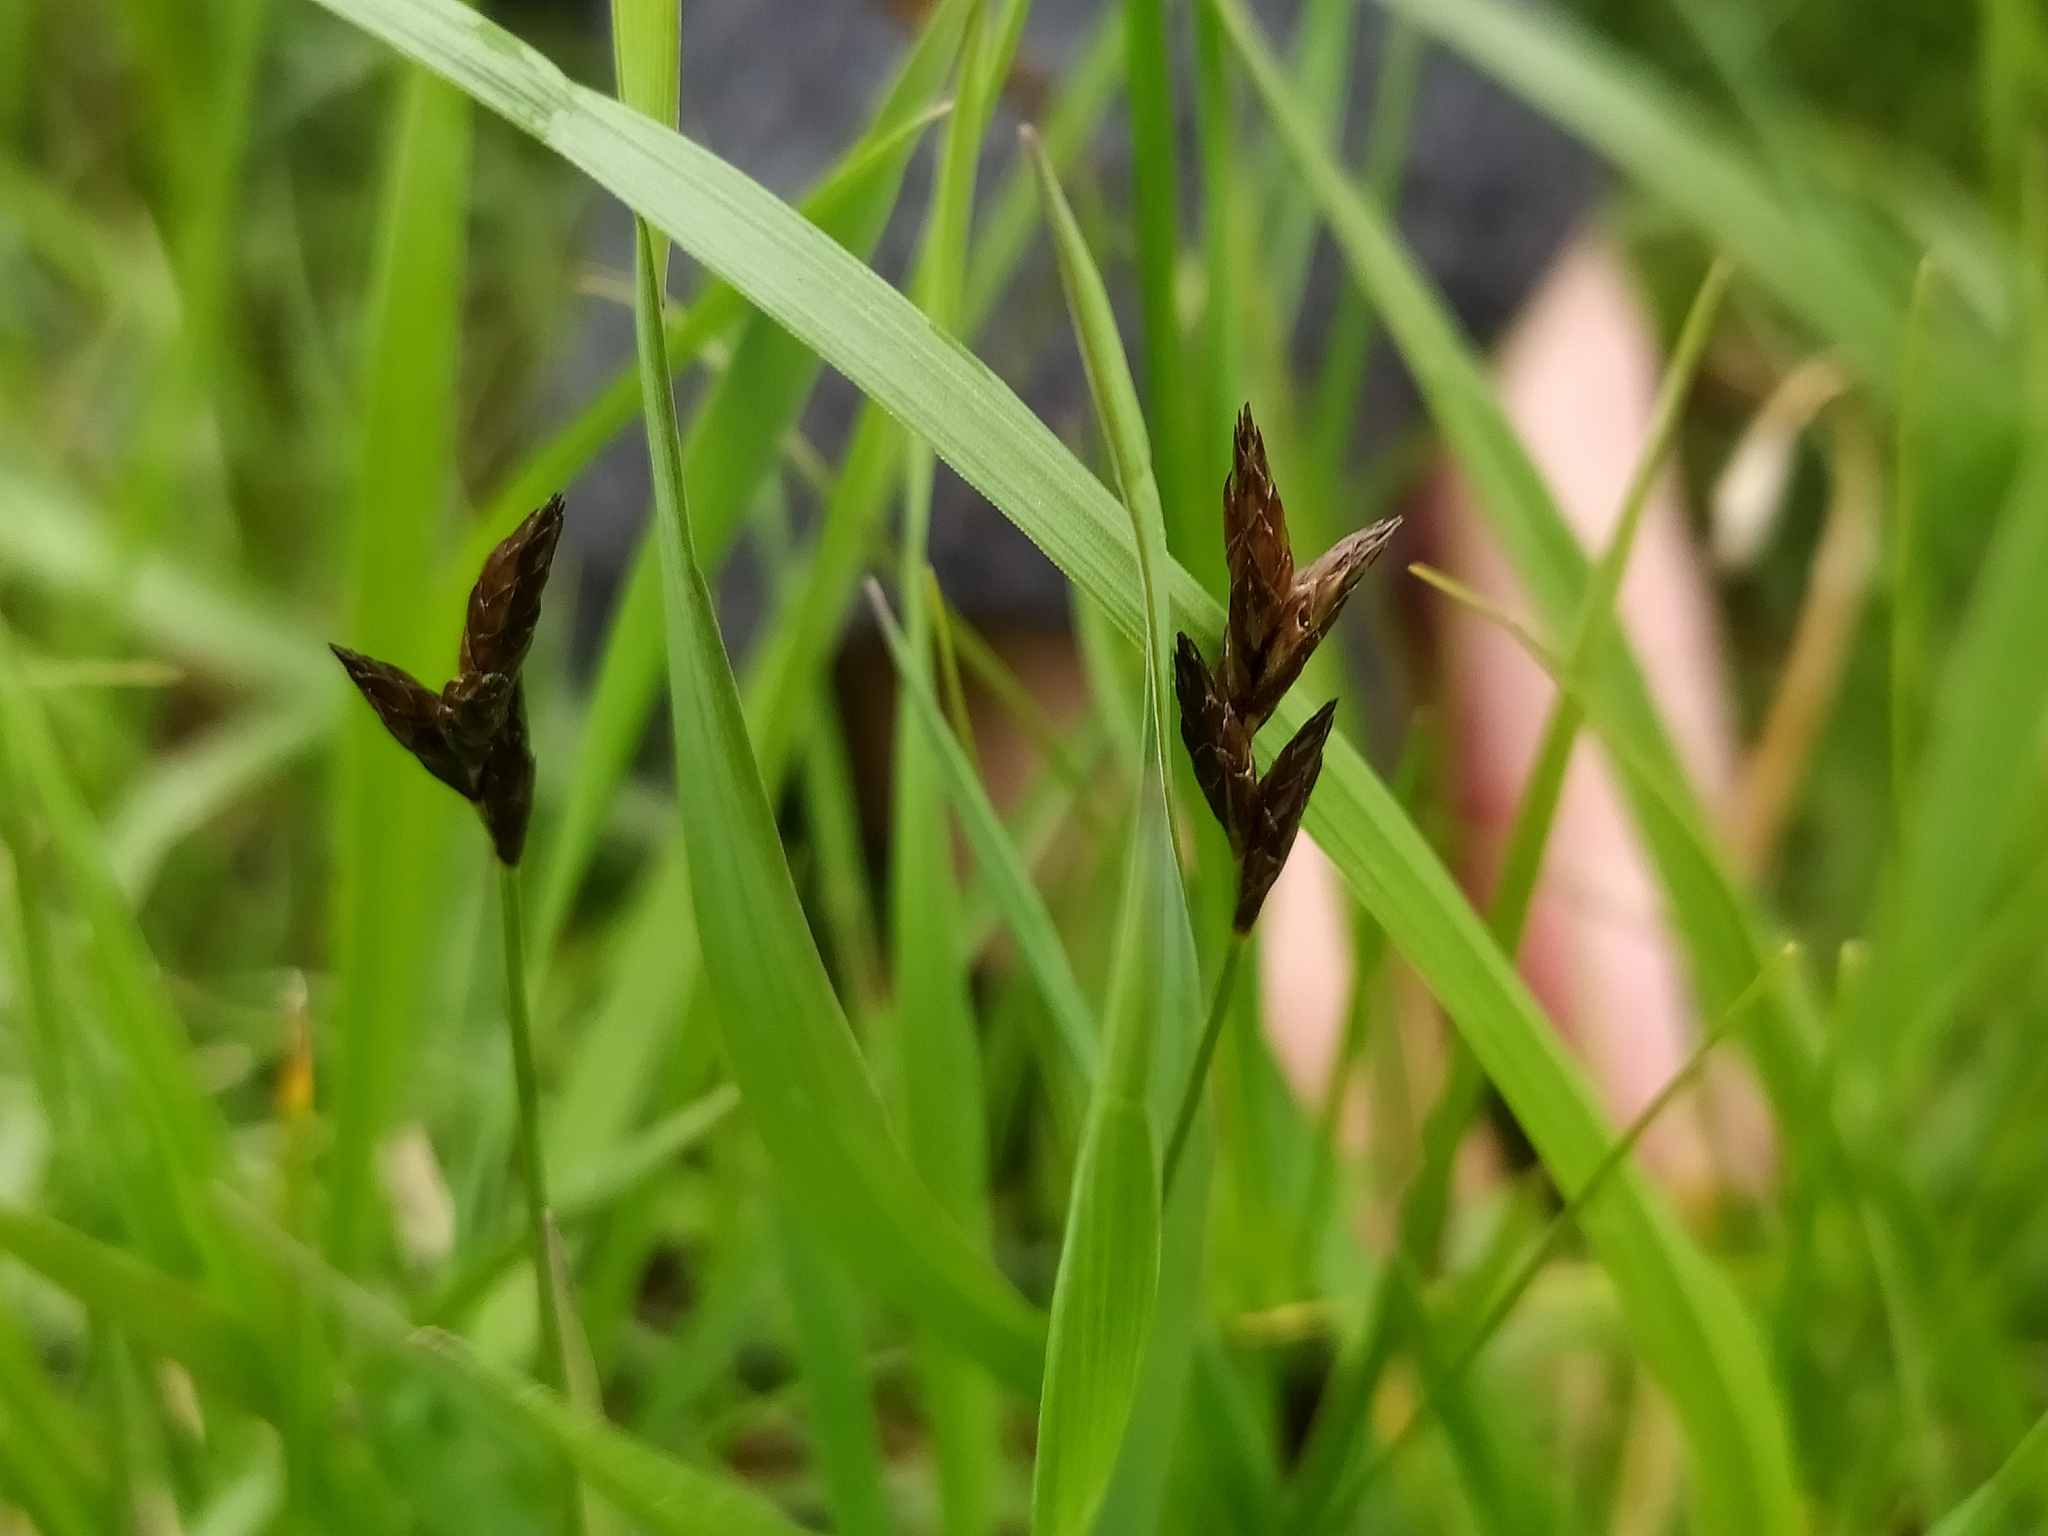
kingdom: Plantae
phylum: Tracheophyta
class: Liliopsida
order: Poales
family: Cyperaceae
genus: Carex
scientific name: Carex praecox
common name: Early sedge
